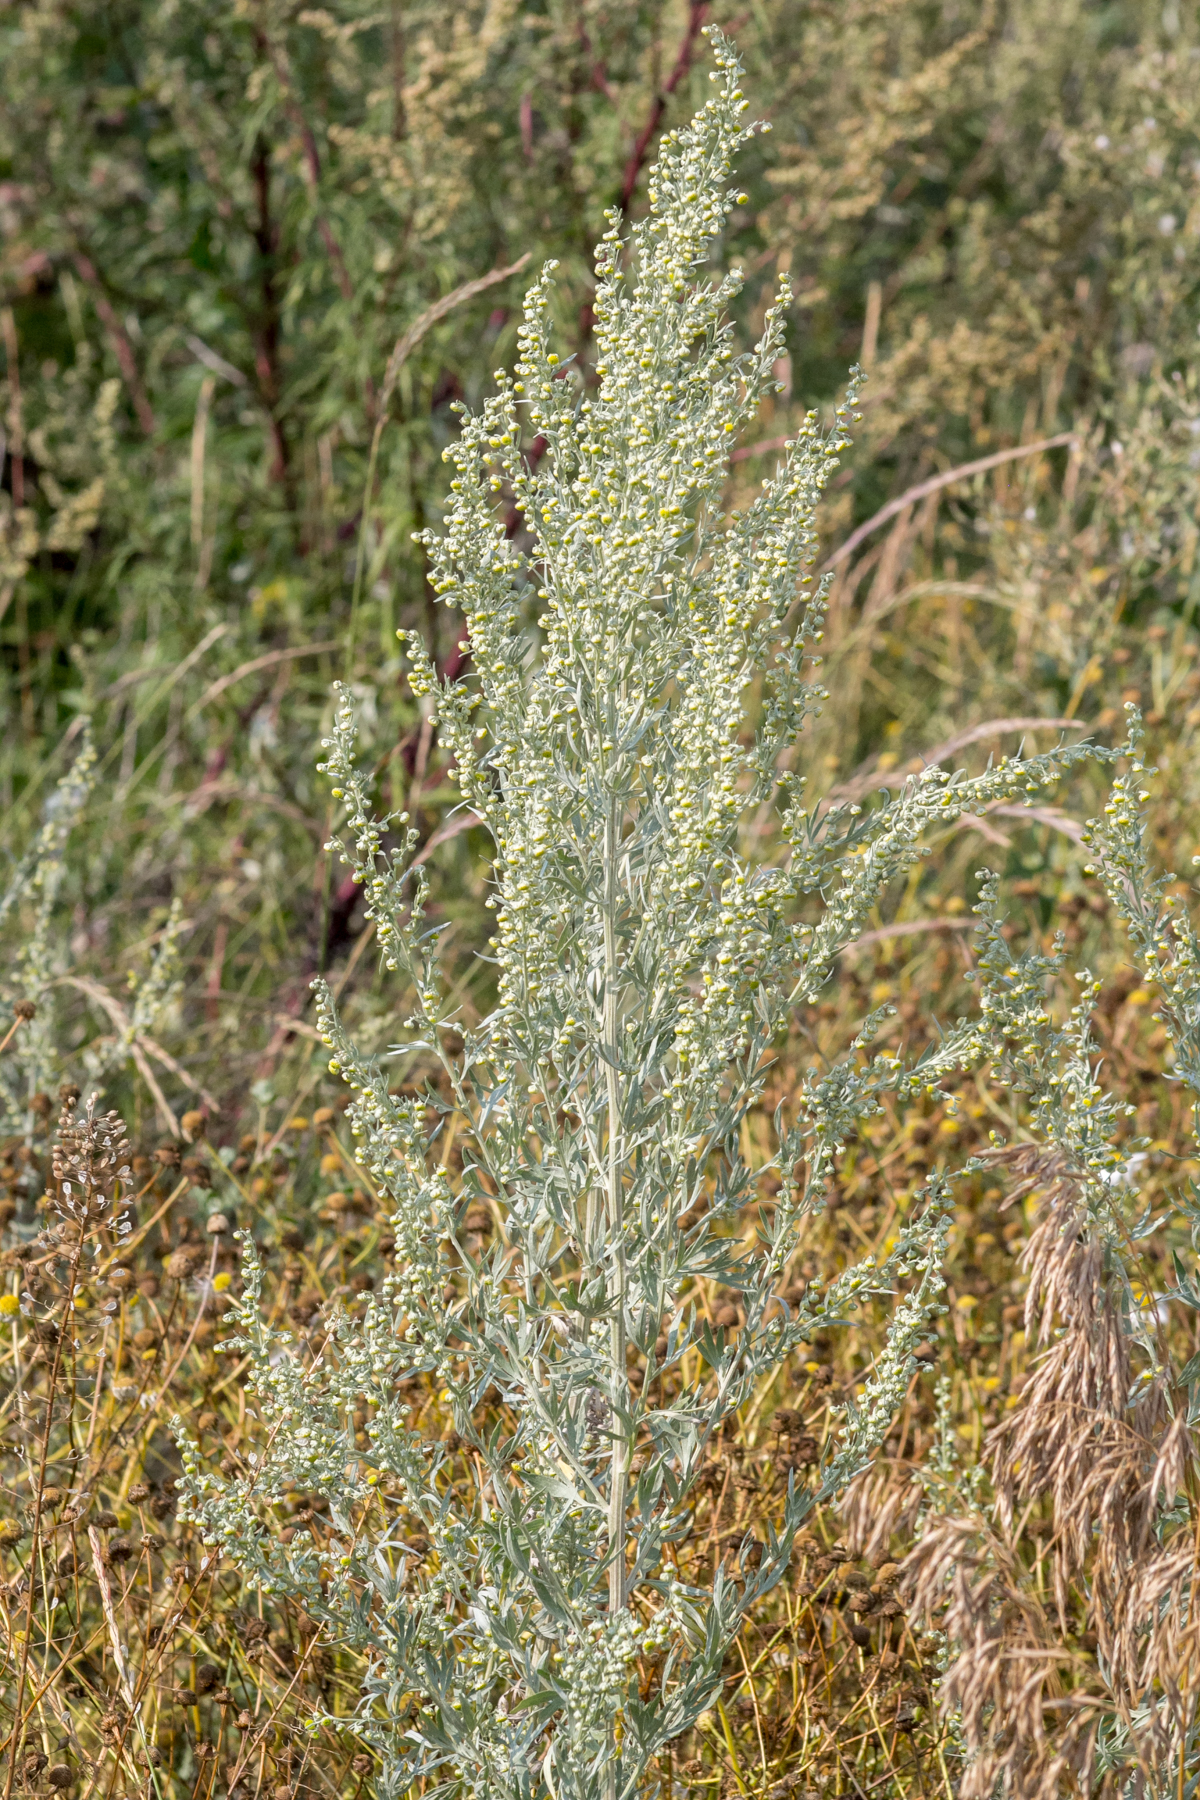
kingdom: Plantae
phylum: Tracheophyta
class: Magnoliopsida
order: Asterales
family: Asteraceae
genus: Artemisia
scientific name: Artemisia absinthium
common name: Wormwood
